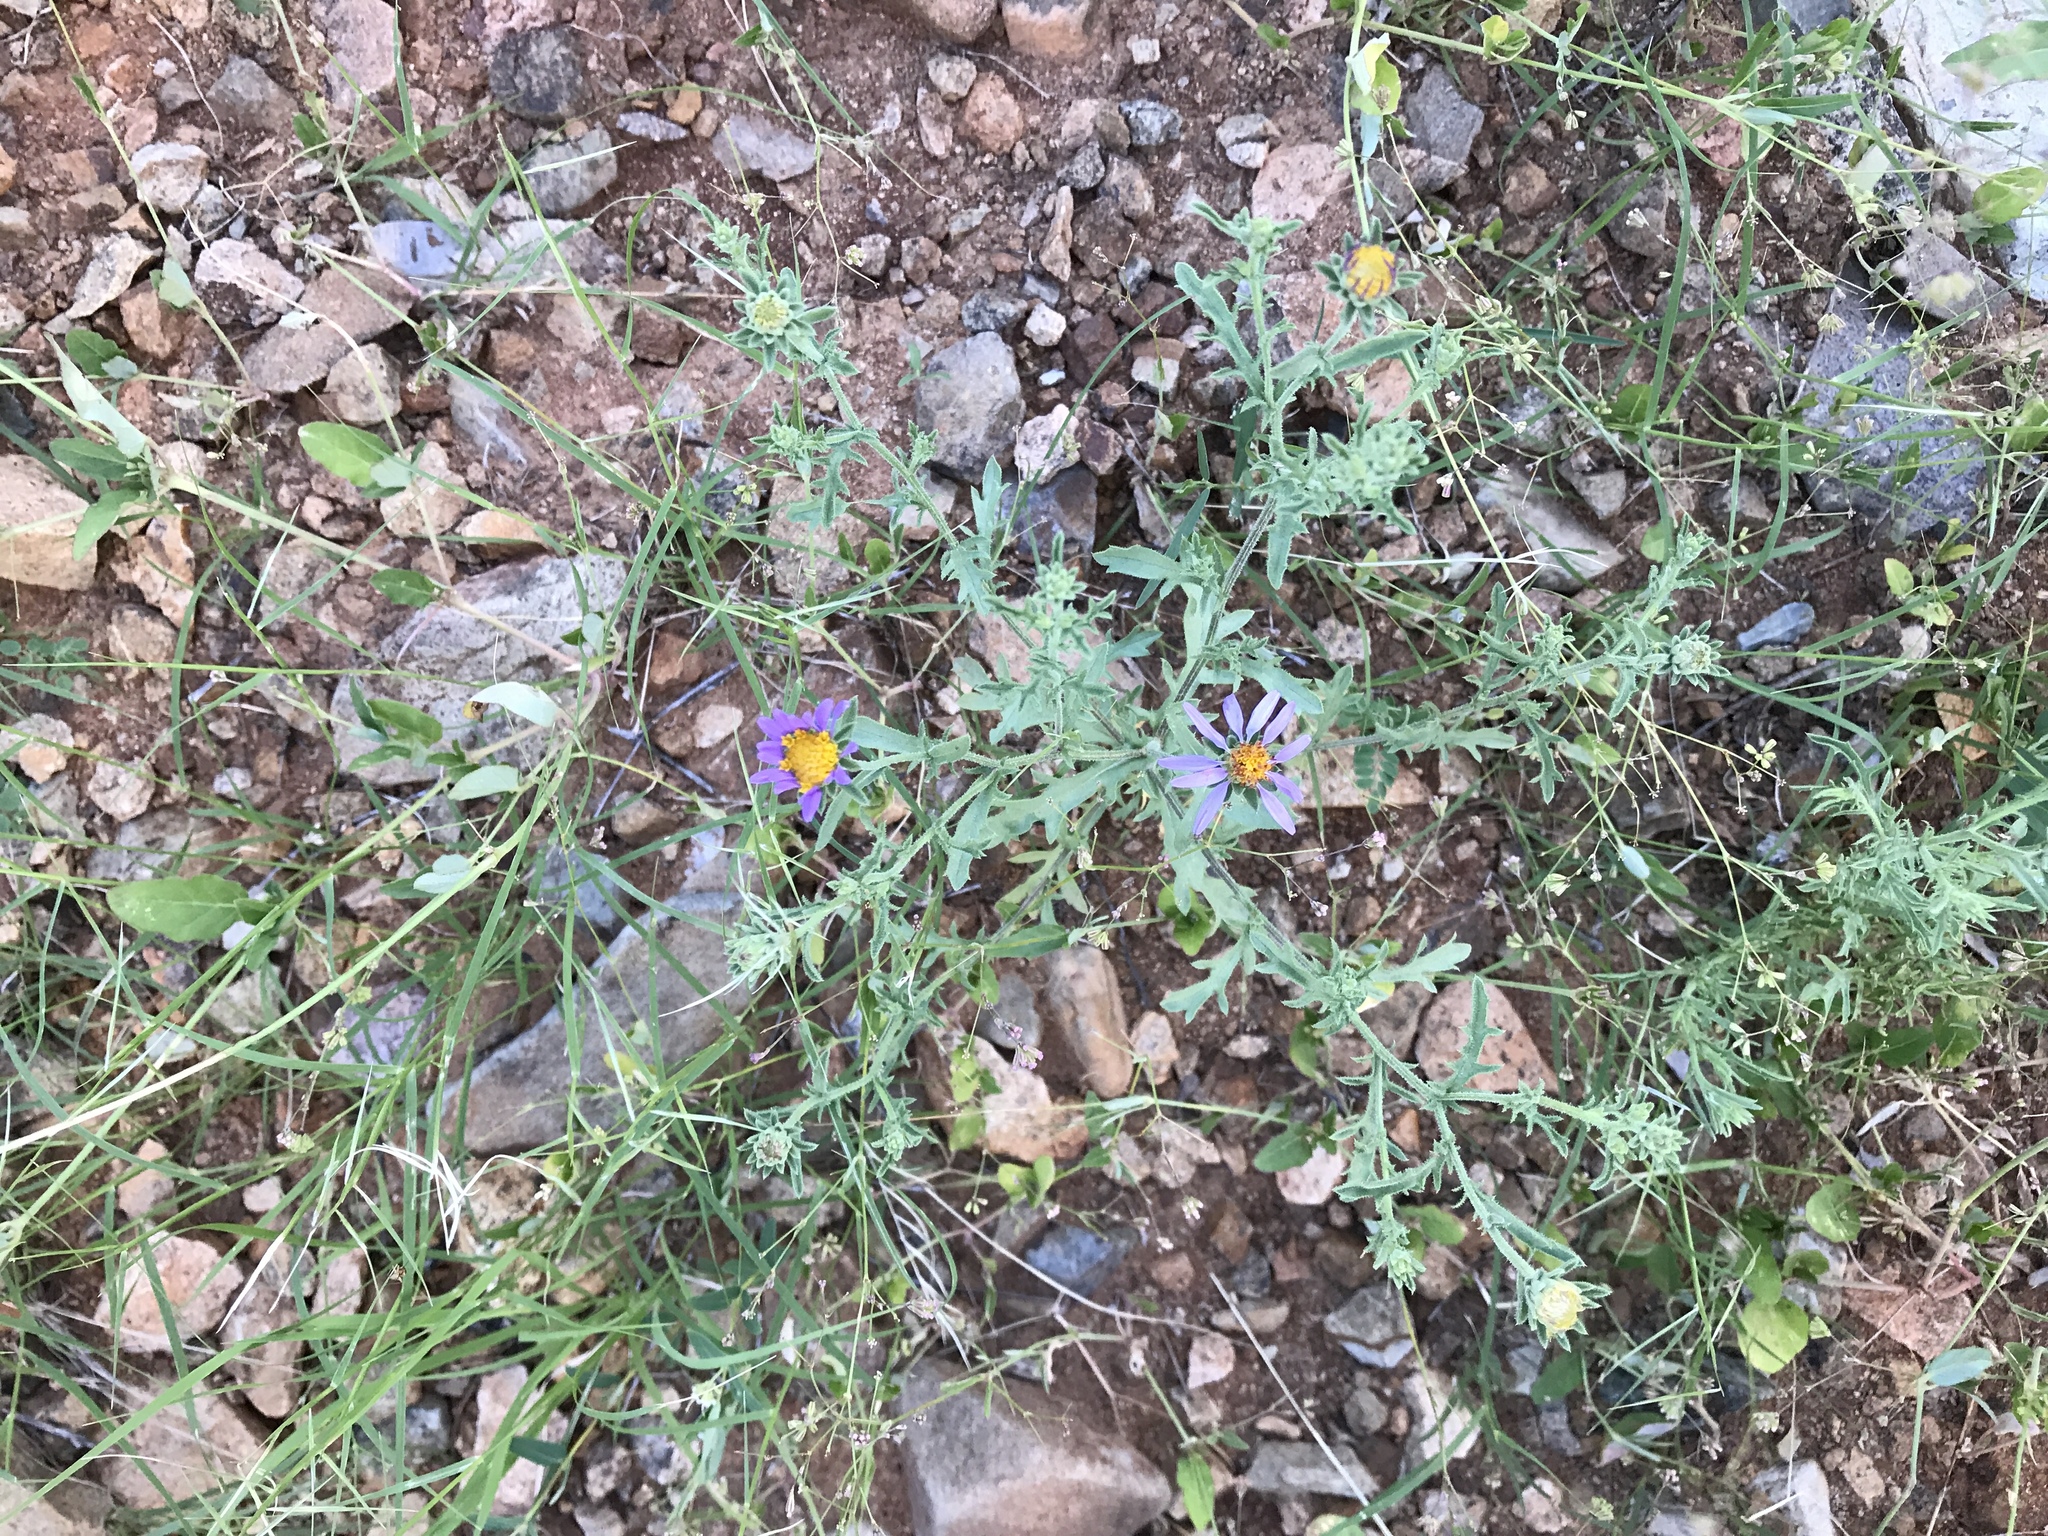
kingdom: Plantae
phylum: Tracheophyta
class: Magnoliopsida
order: Asterales
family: Asteraceae
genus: Machaeranthera
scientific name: Machaeranthera tagetina
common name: Mesa tansy-aster
